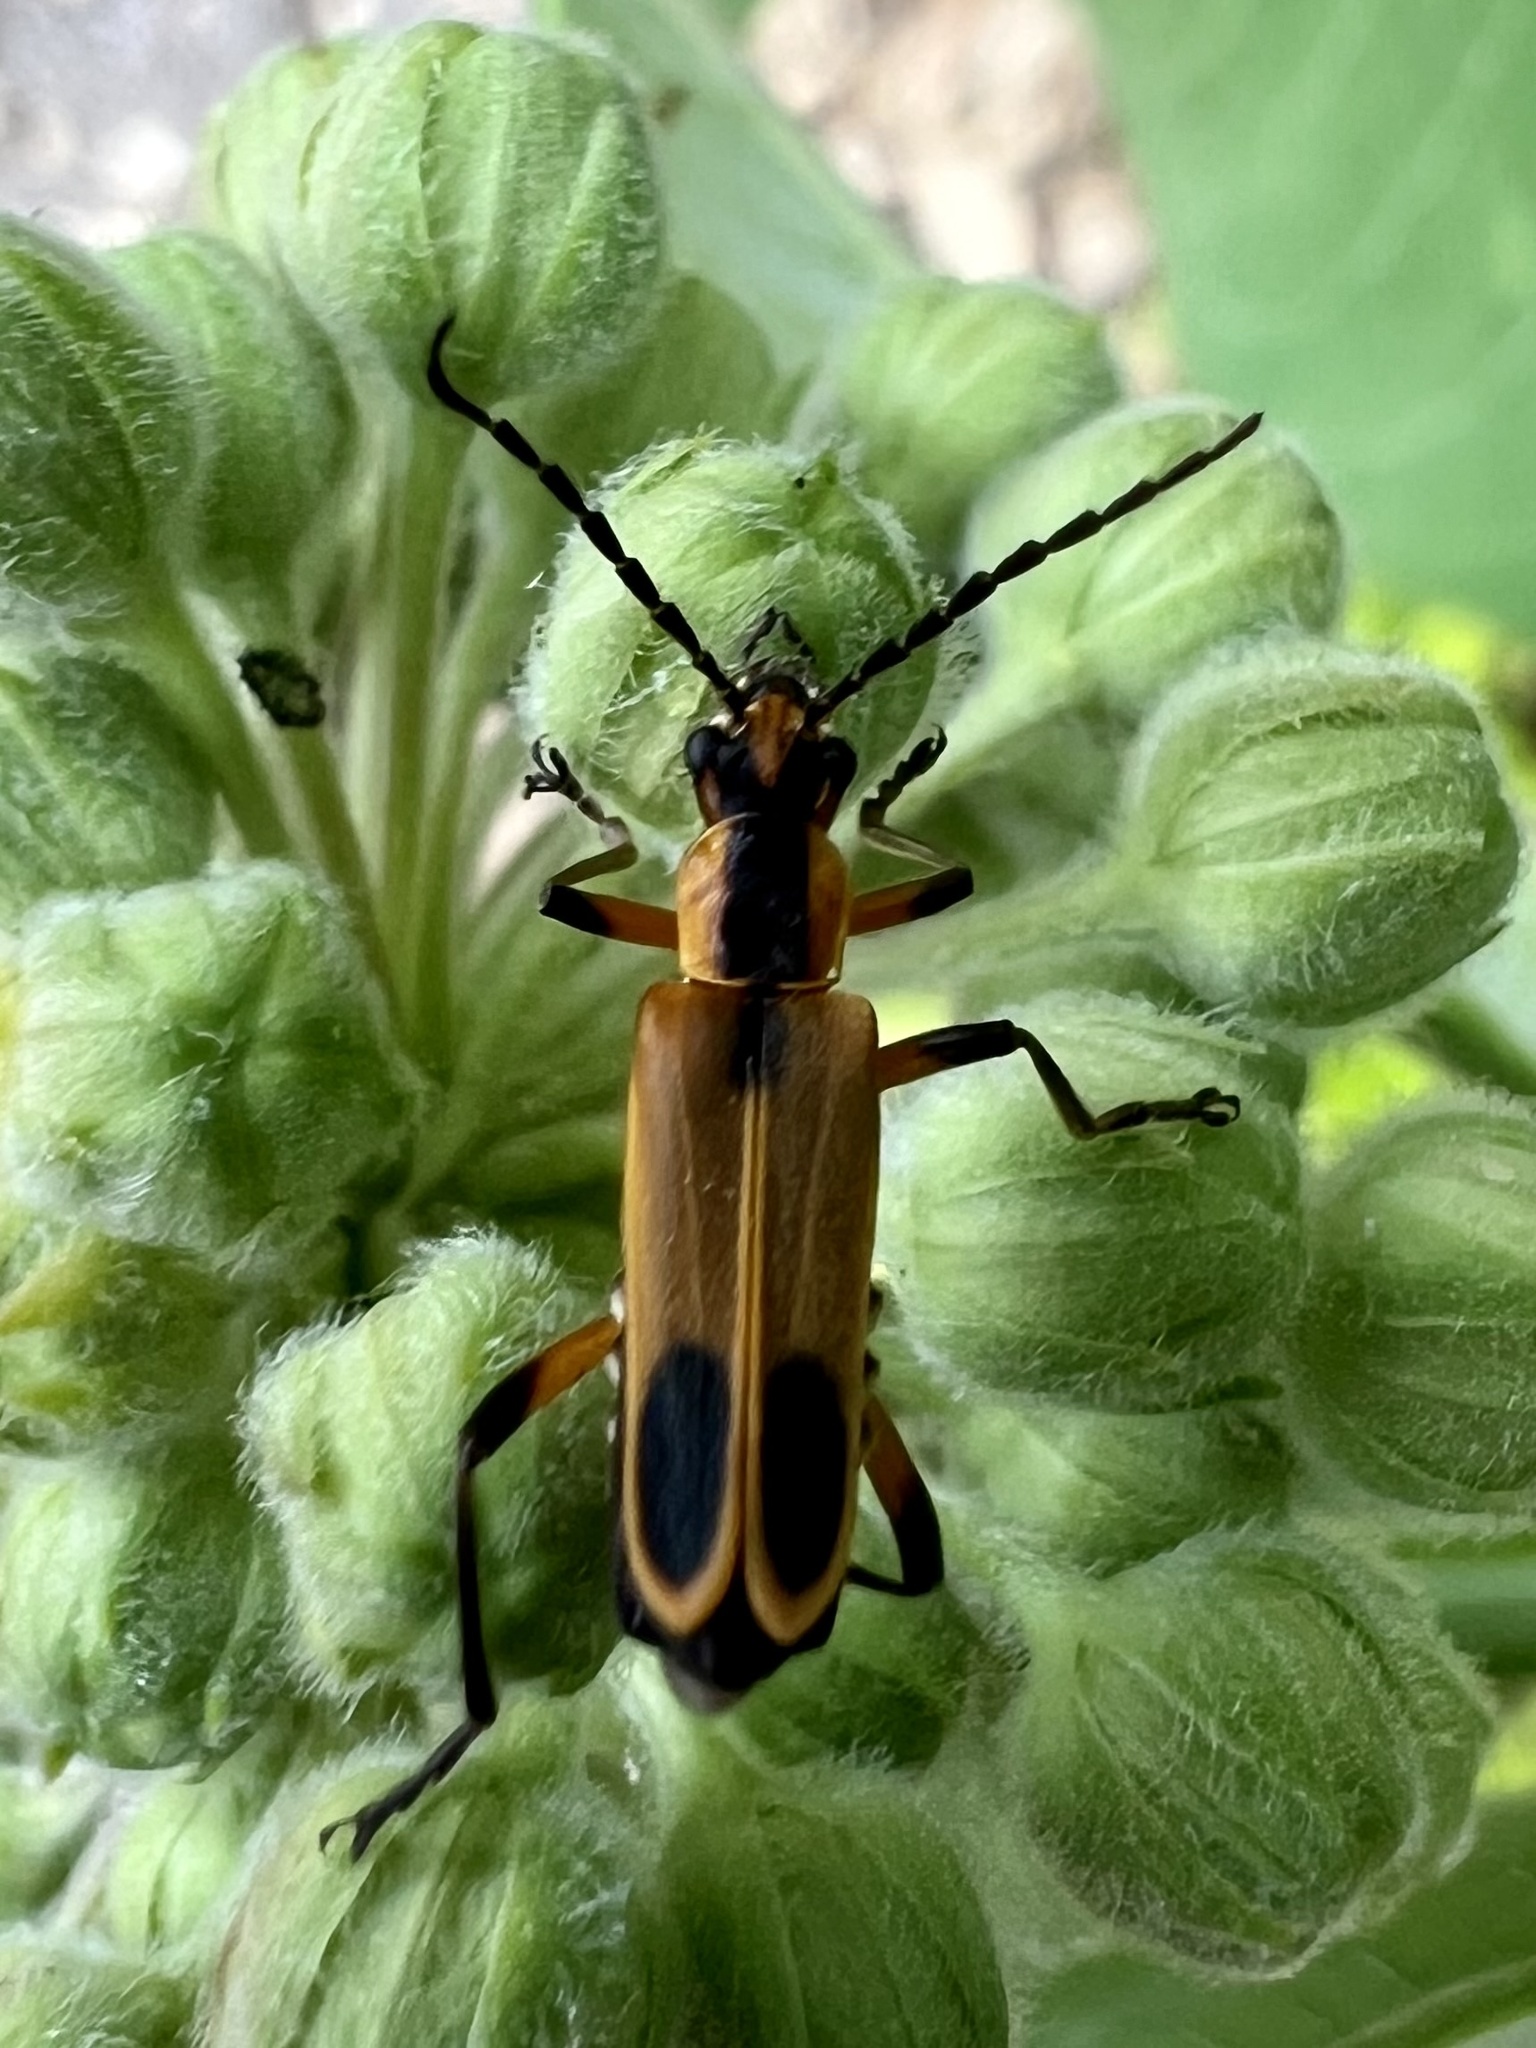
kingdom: Animalia
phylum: Arthropoda
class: Insecta
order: Coleoptera
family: Cantharidae
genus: Chauliognathus
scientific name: Chauliognathus marginatus
